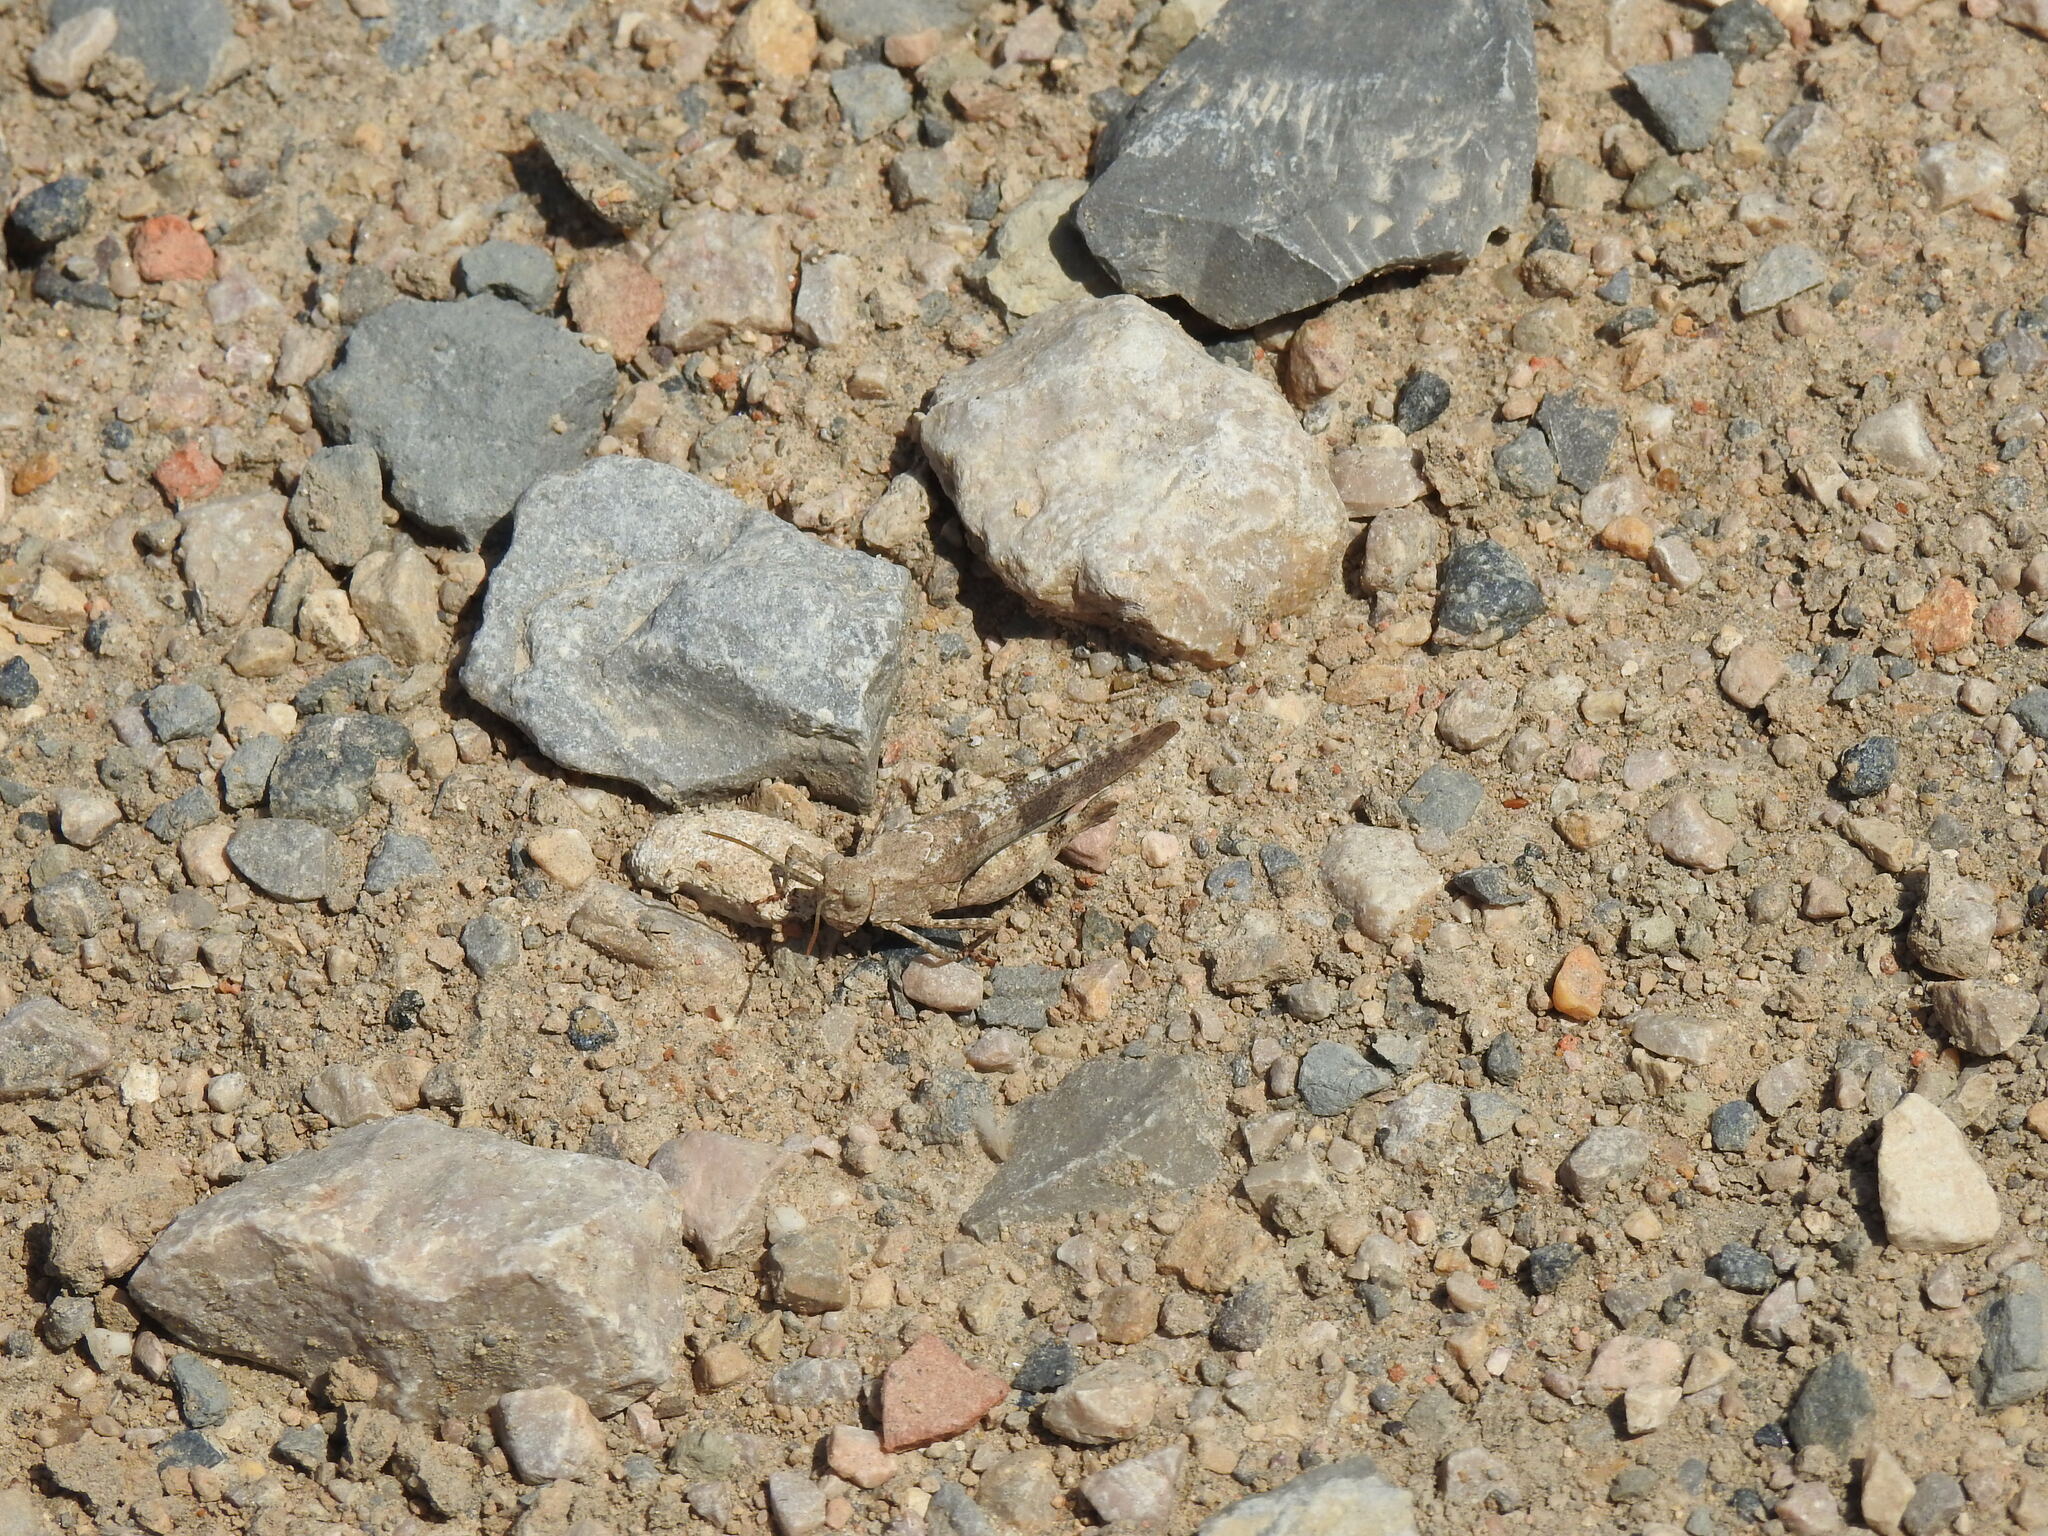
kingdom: Animalia
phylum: Arthropoda
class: Insecta
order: Orthoptera
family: Acrididae
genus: Oedipoda
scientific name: Oedipoda coerulea
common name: Iberian band-winged grasshopper
